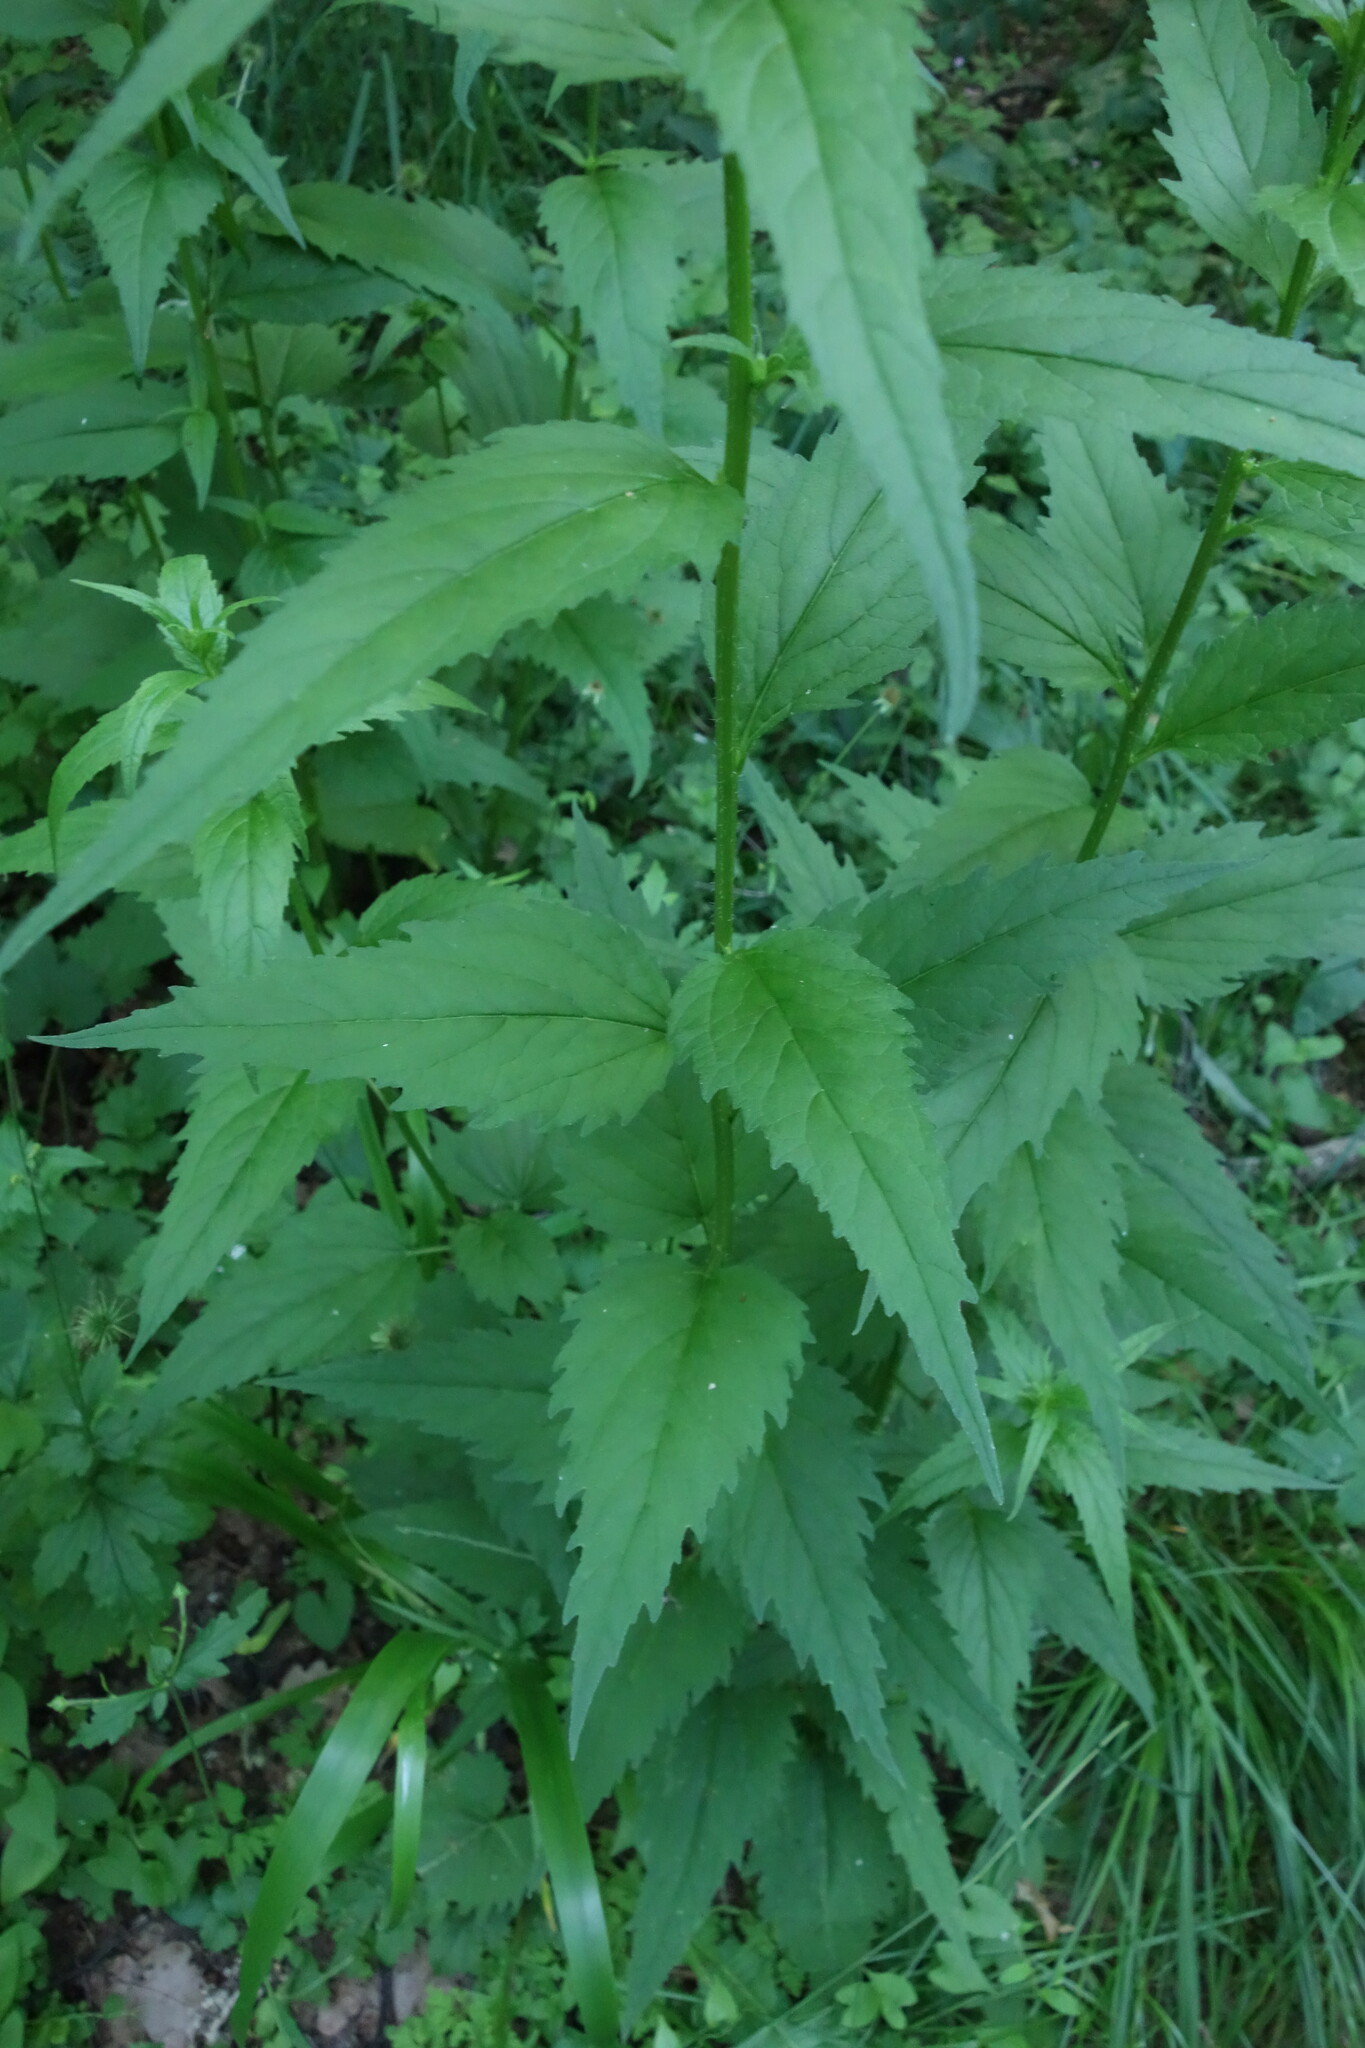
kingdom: Plantae
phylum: Tracheophyta
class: Magnoliopsida
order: Asterales
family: Campanulaceae
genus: Campanula
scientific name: Campanula trachelium
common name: Nettle-leaved bellflower
